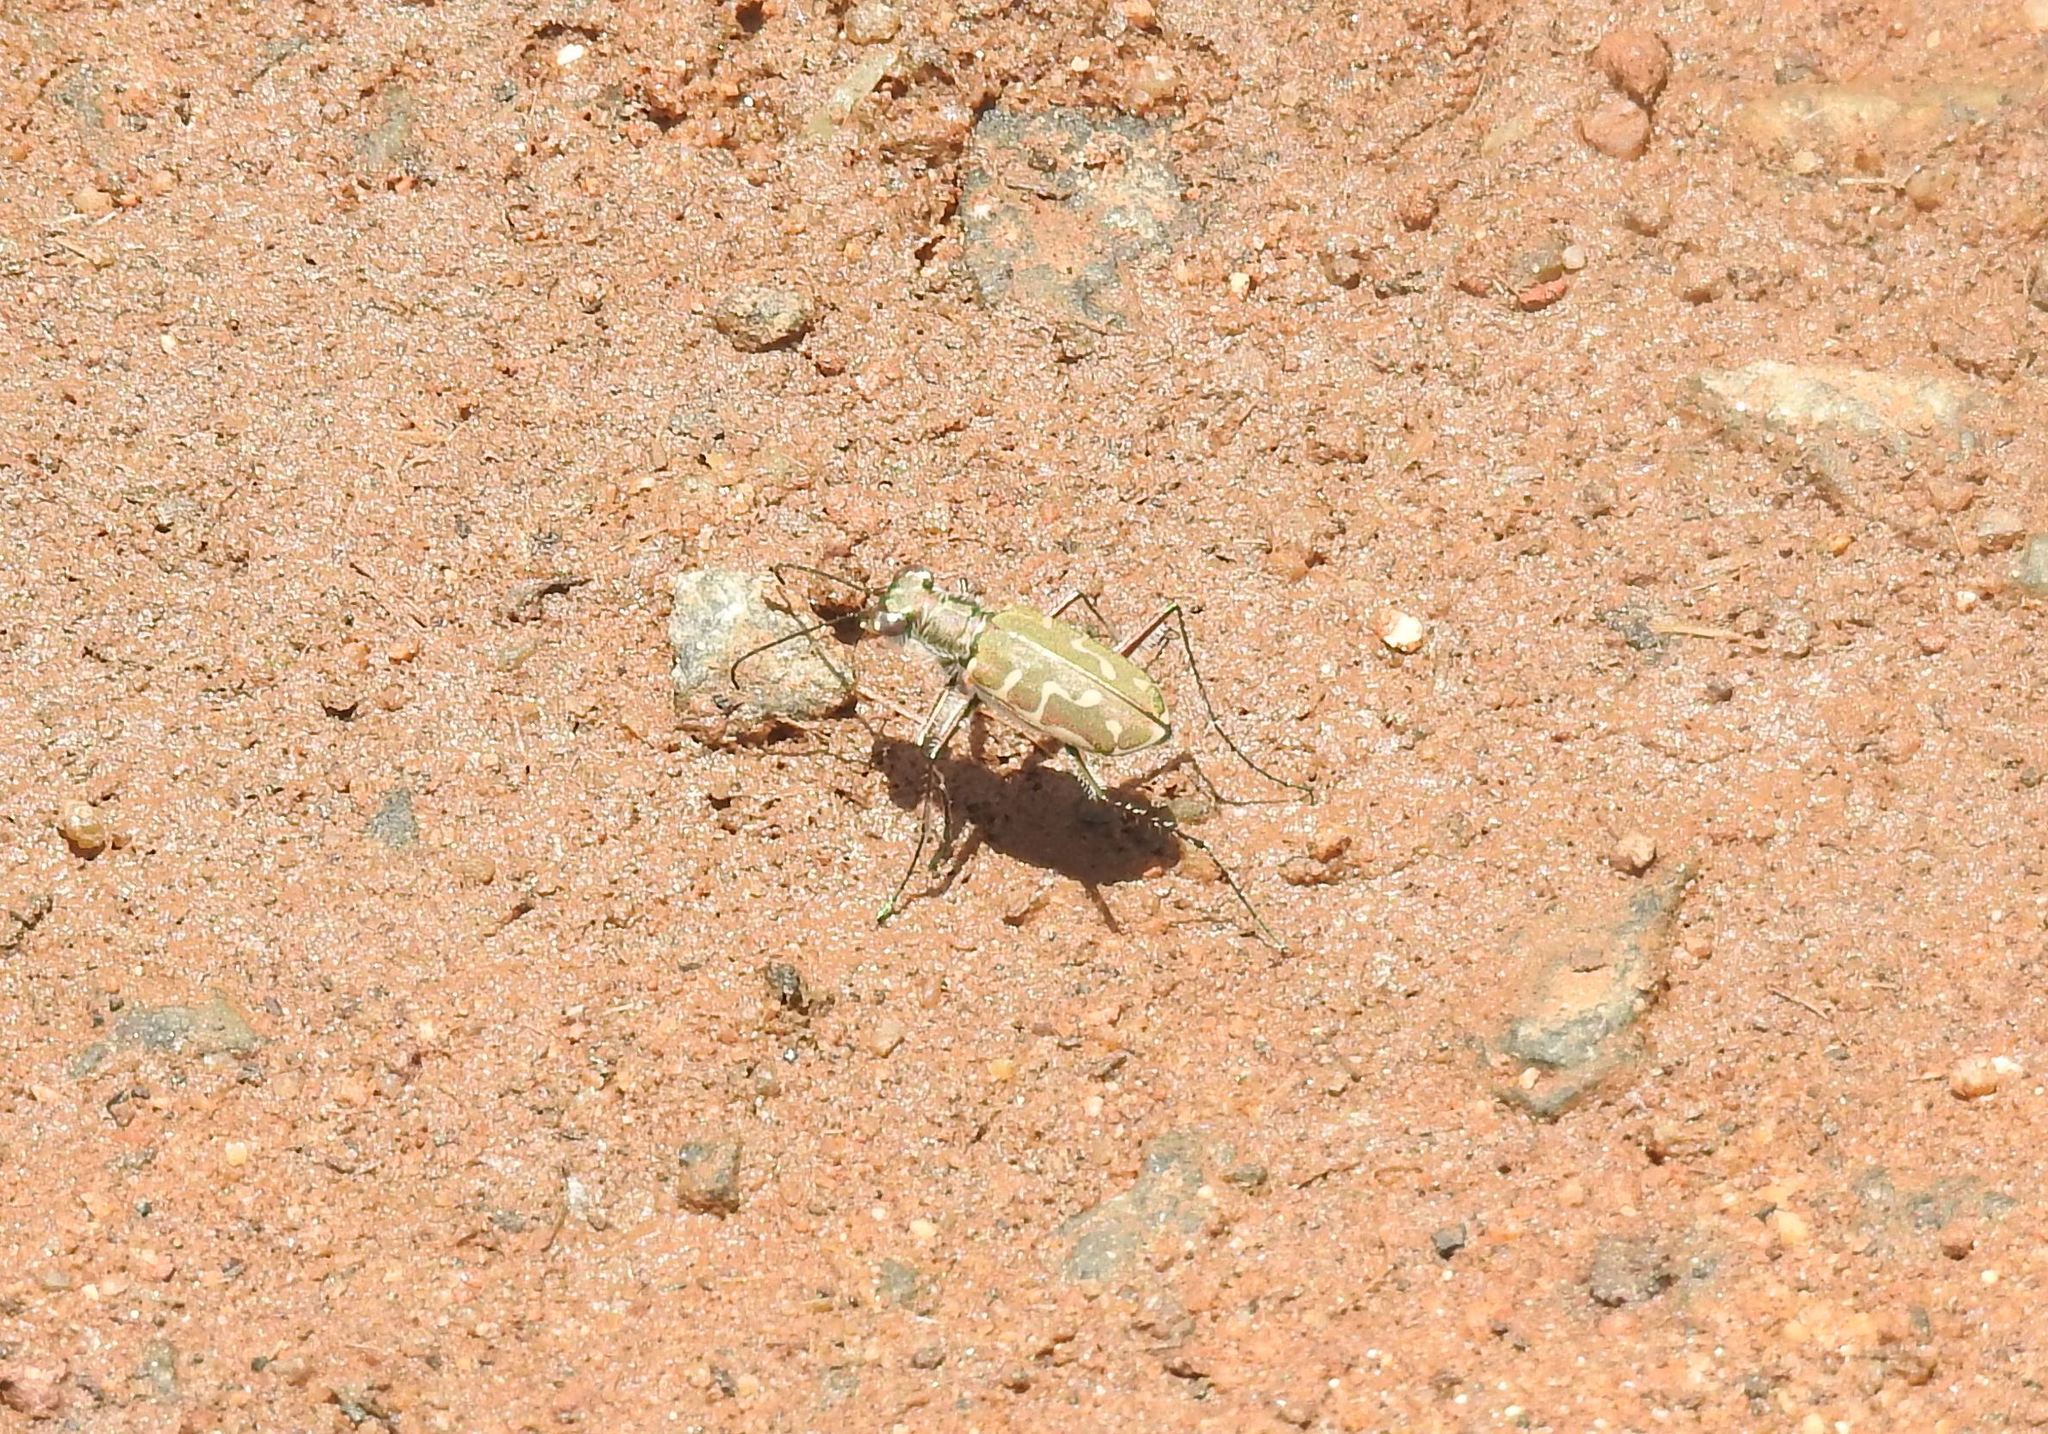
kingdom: Animalia
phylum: Arthropoda
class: Insecta
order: Coleoptera
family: Carabidae
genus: Cicindela
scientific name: Cicindela angulata
